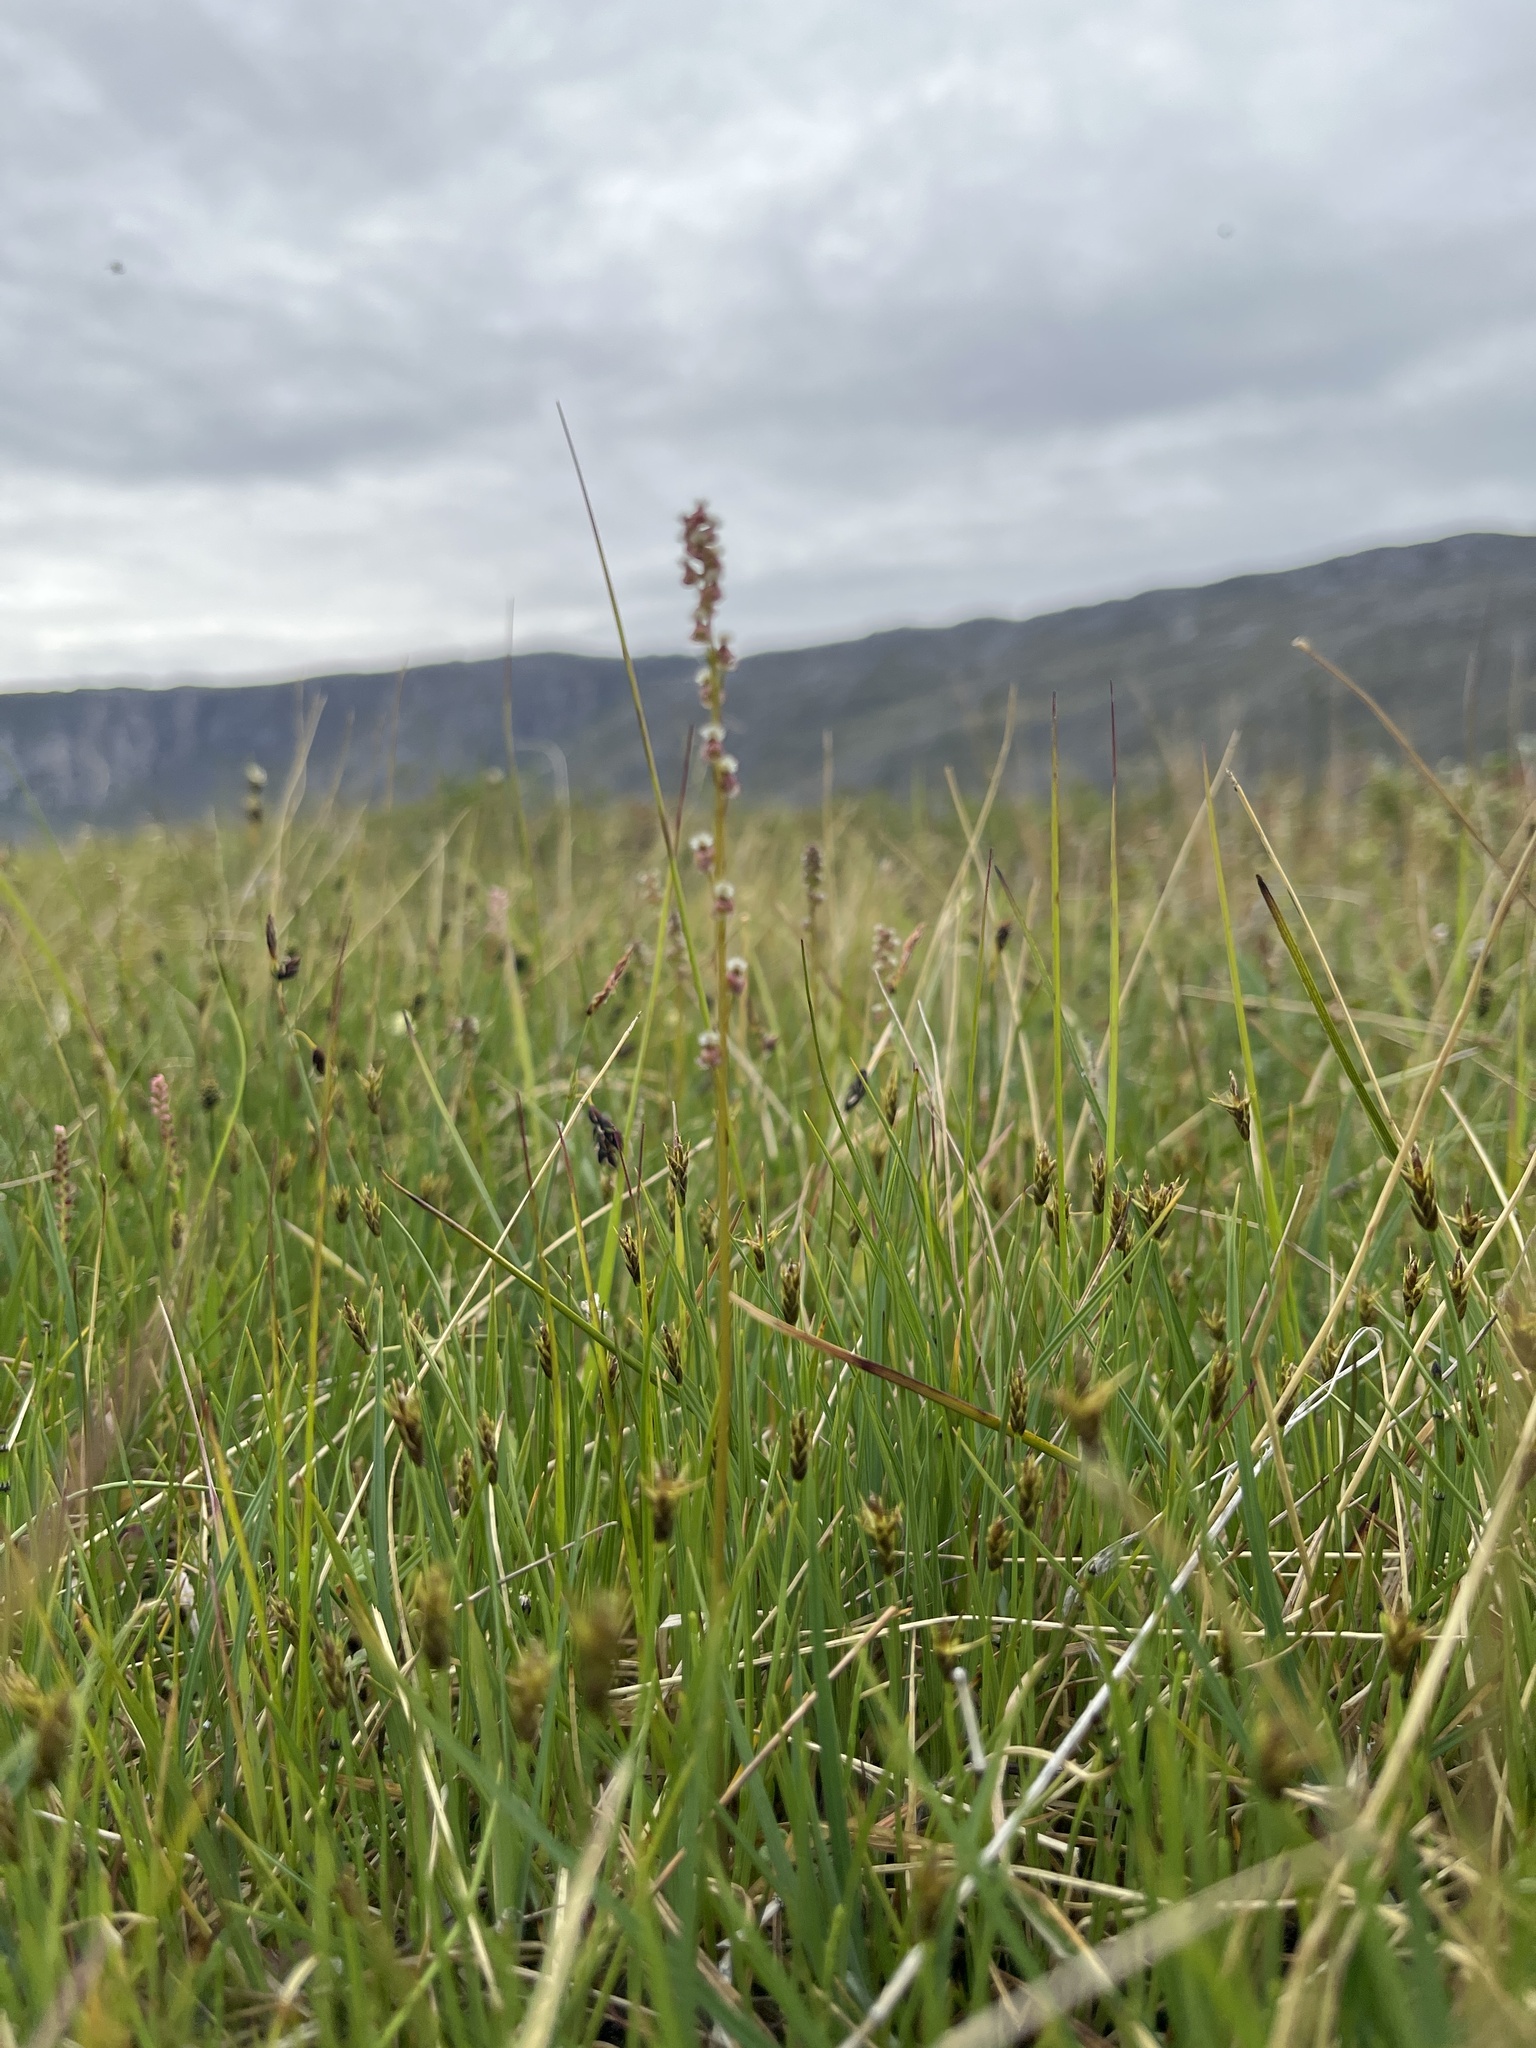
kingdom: Plantae
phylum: Tracheophyta
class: Liliopsida
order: Alismatales
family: Juncaginaceae
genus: Triglochin
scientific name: Triglochin palustris
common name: Marsh arrowgrass
